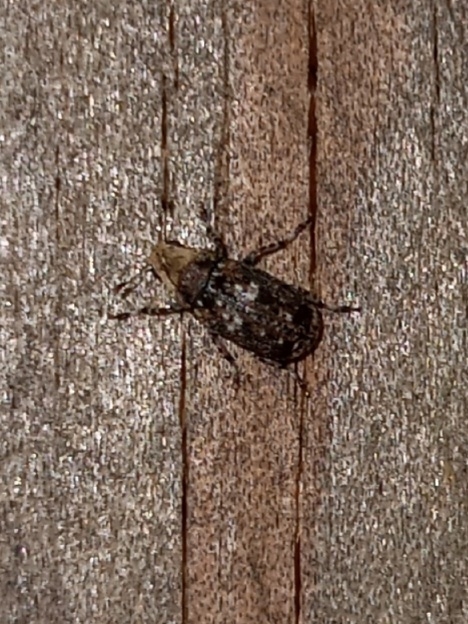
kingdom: Animalia
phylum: Arthropoda
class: Insecta
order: Coleoptera
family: Anthribidae
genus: Euparius
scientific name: Euparius paganus
